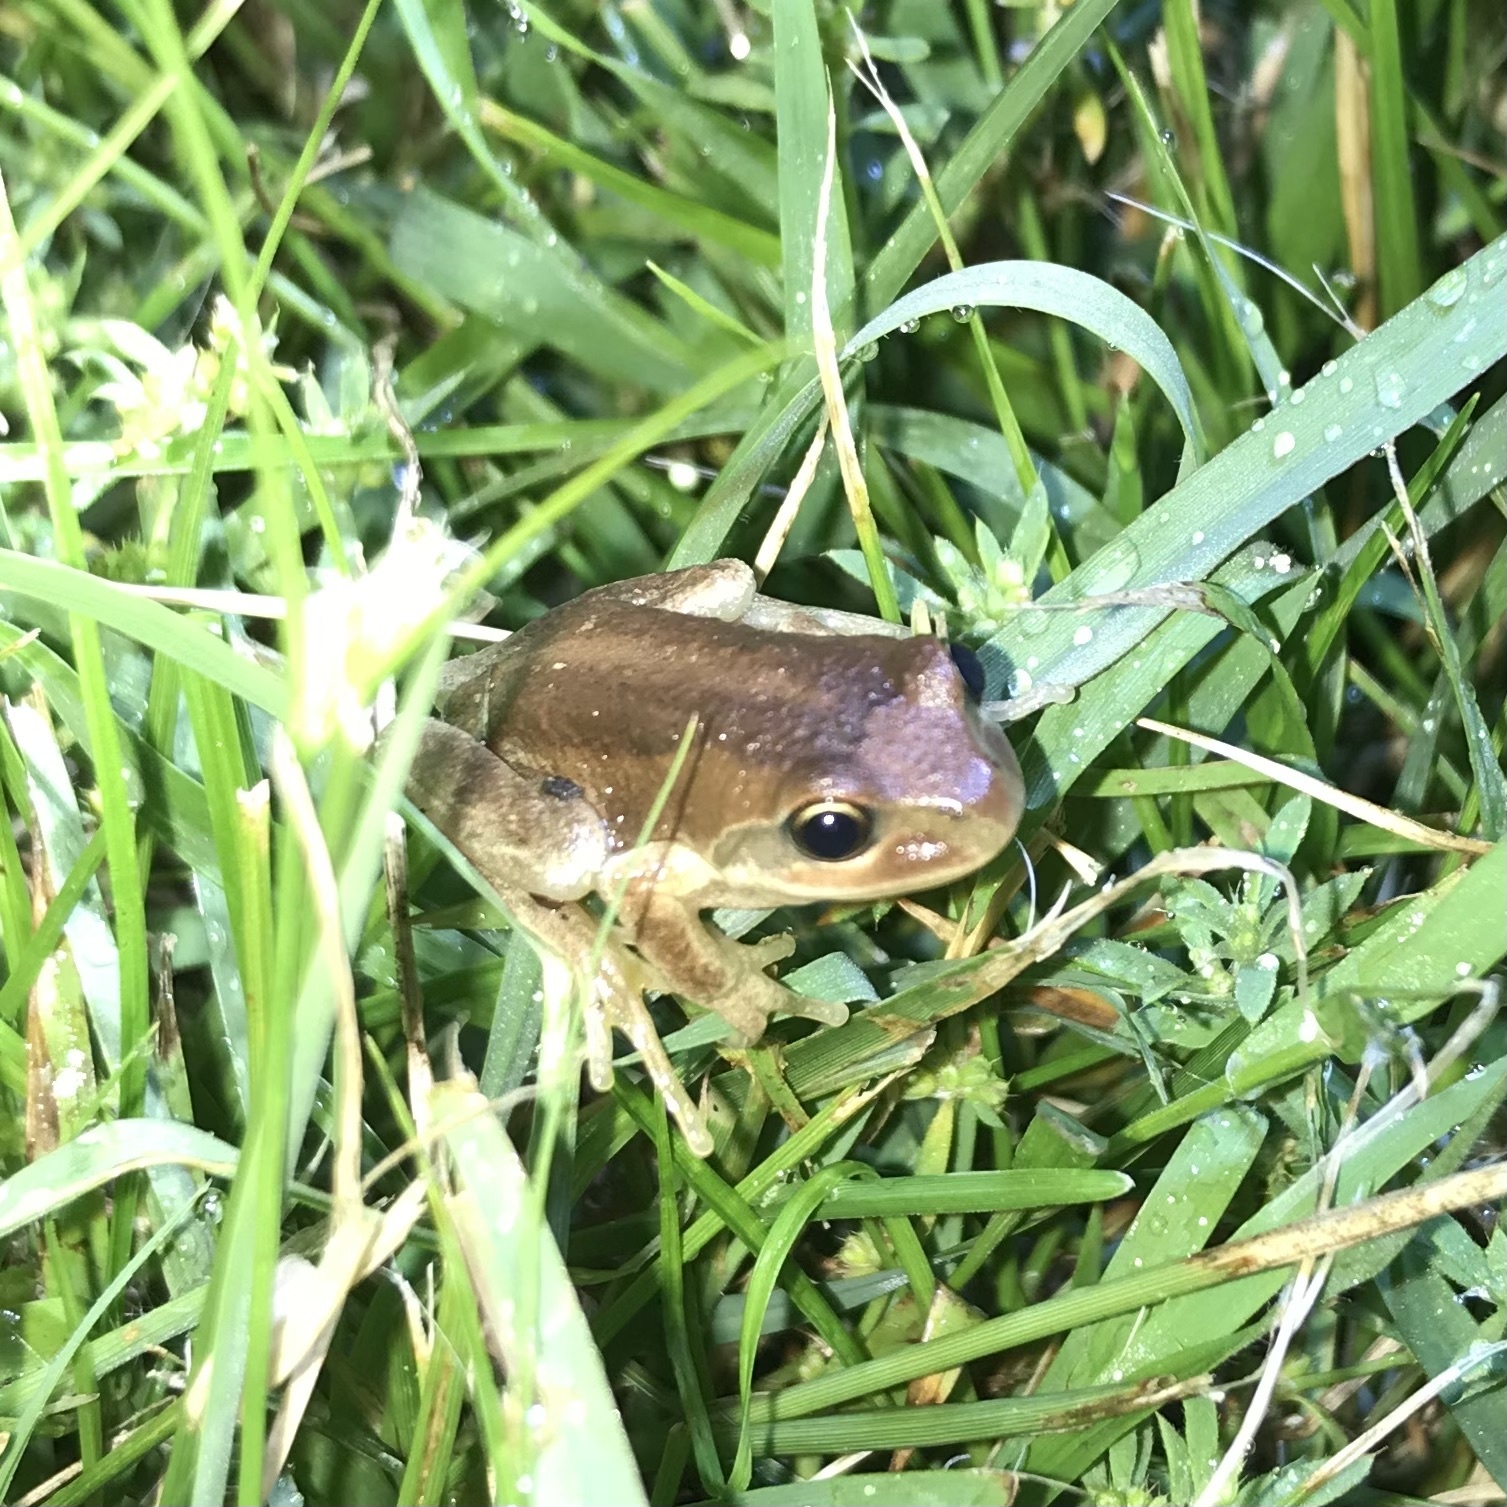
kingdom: Animalia
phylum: Chordata
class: Amphibia
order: Anura
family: Pelodryadidae
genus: Litoria
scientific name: Litoria verreauxii
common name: Alpine tree frog
